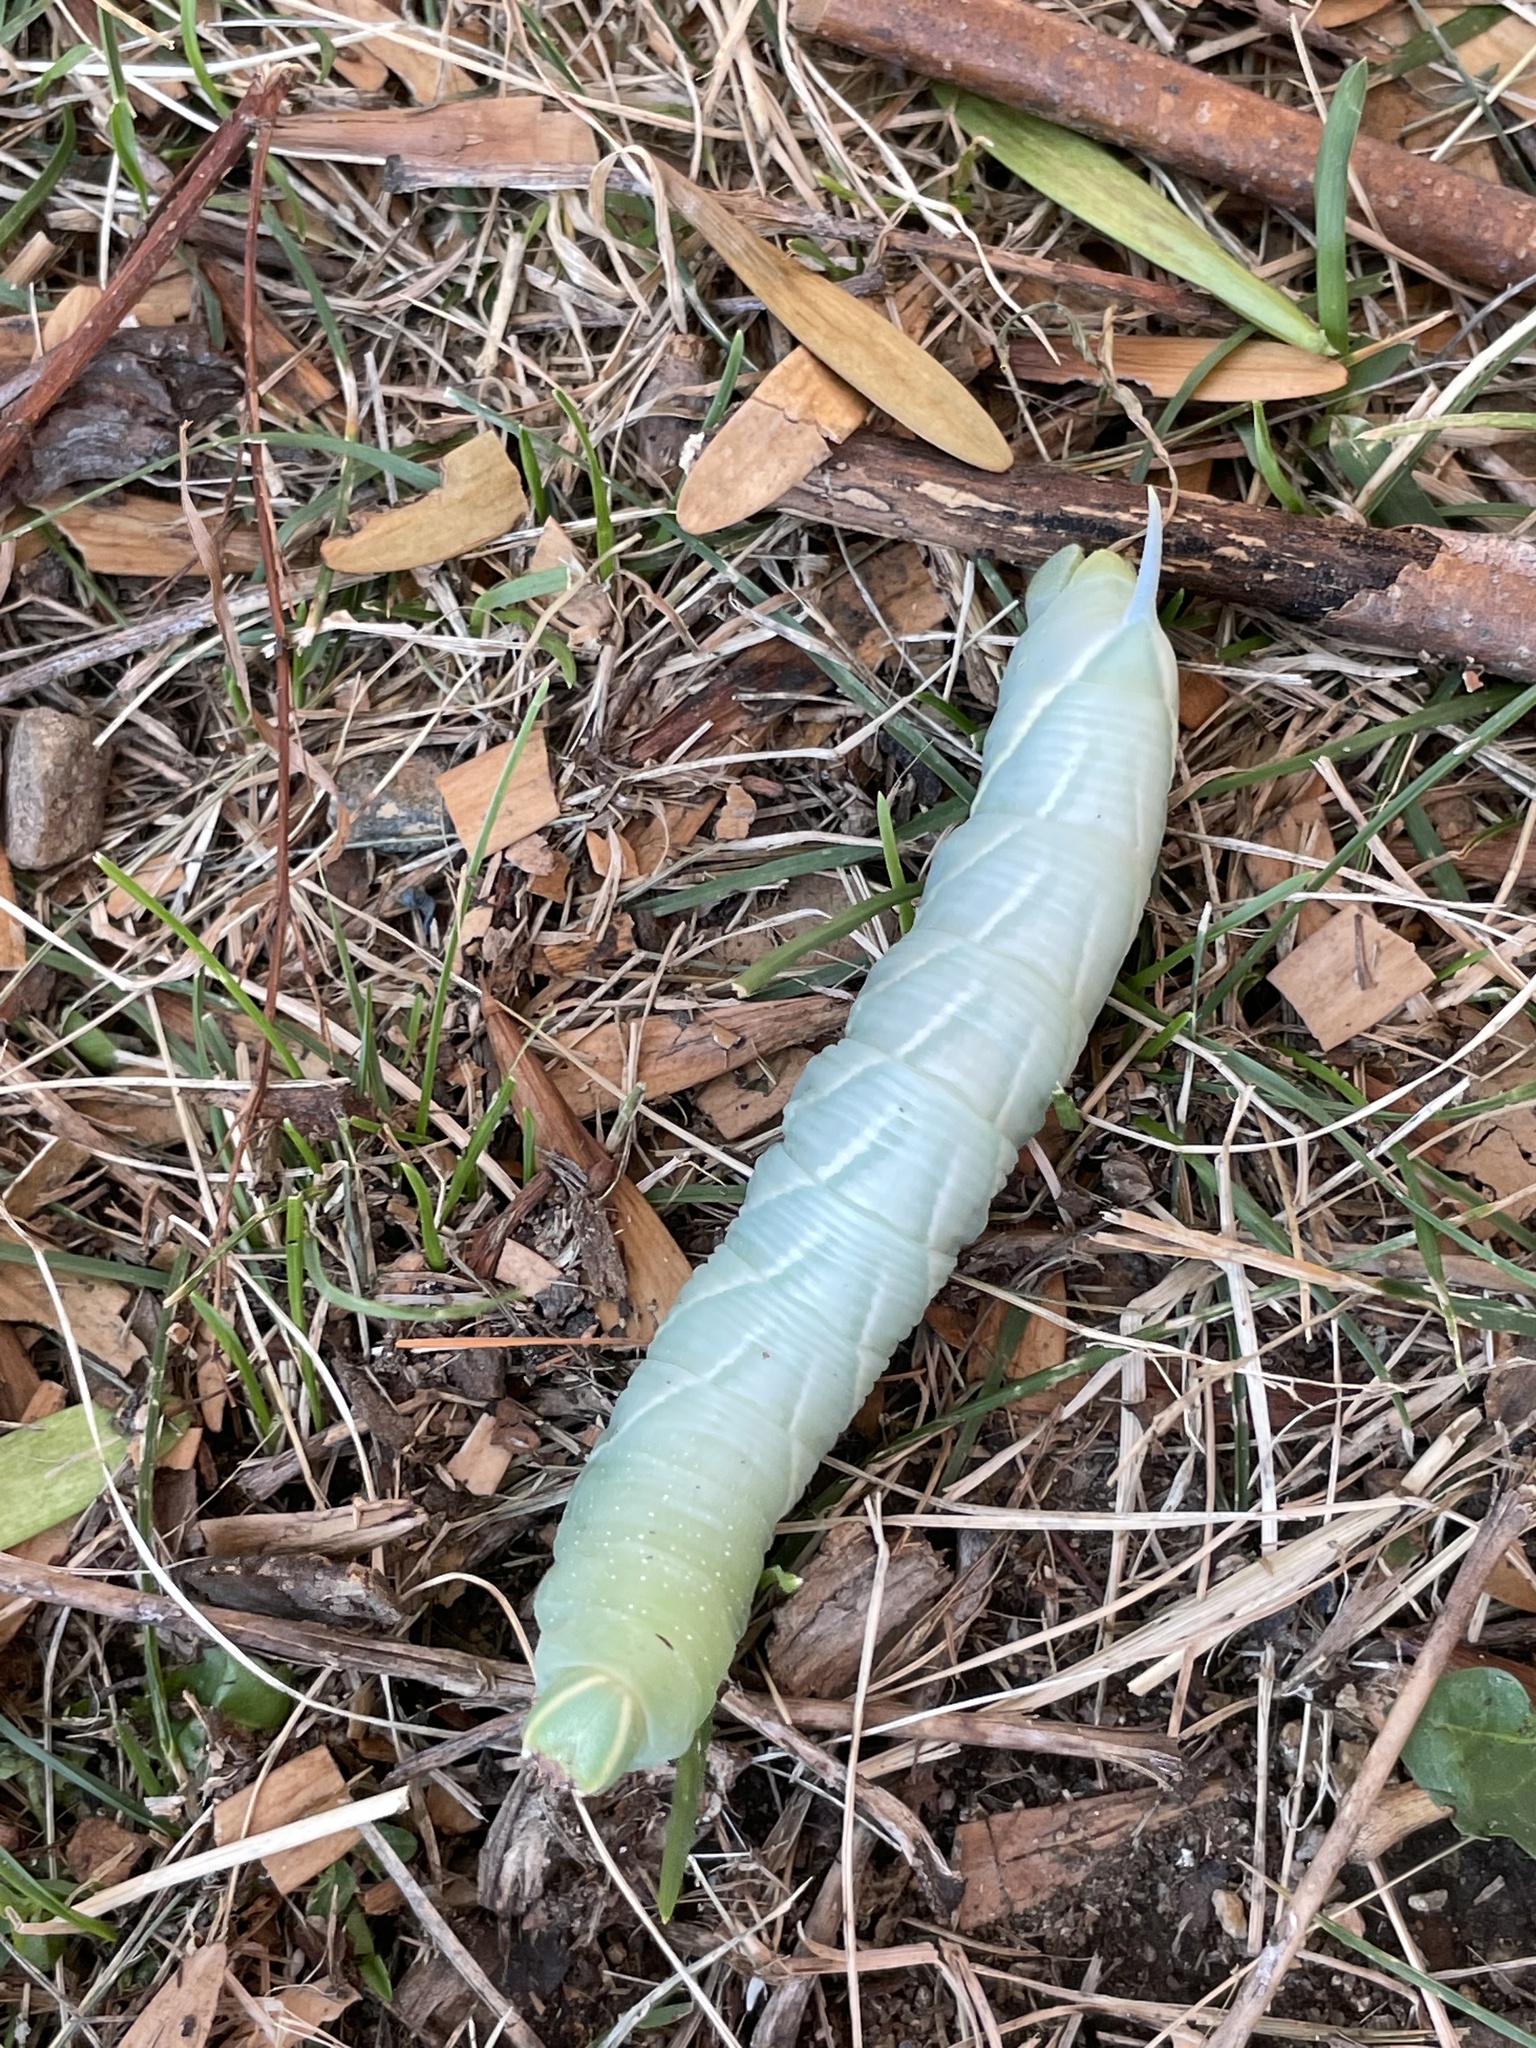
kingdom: Animalia
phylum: Arthropoda
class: Insecta
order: Lepidoptera
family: Sphingidae
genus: Sphinx
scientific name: Sphinx chersis
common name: Great ash sphinx
